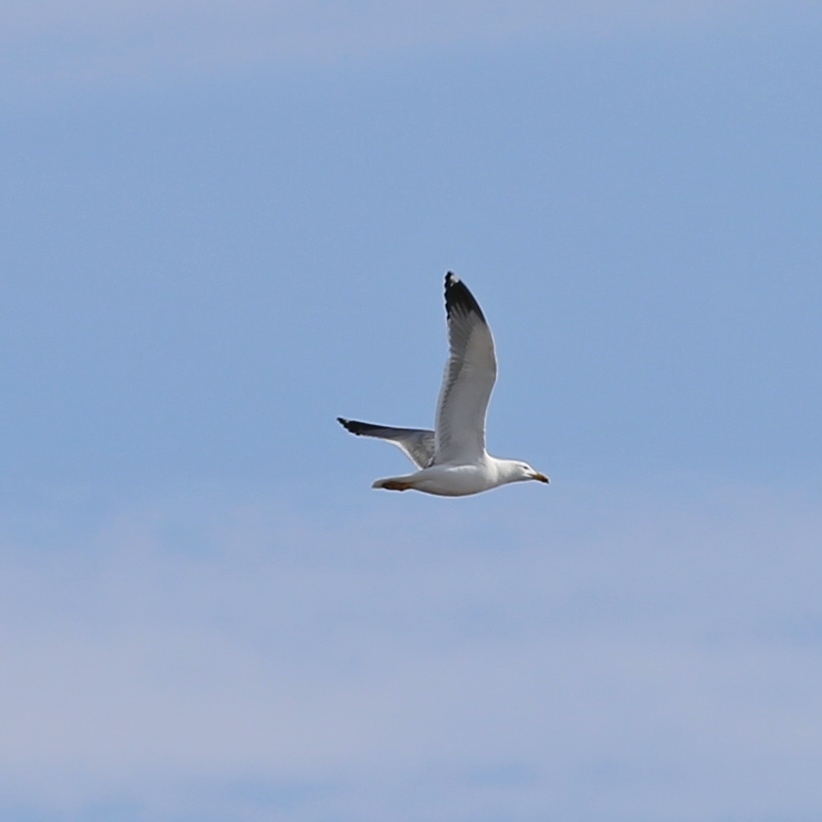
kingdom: Animalia
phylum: Chordata
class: Aves
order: Charadriiformes
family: Laridae
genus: Larus
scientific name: Larus fuscus
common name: Lesser black-backed gull
